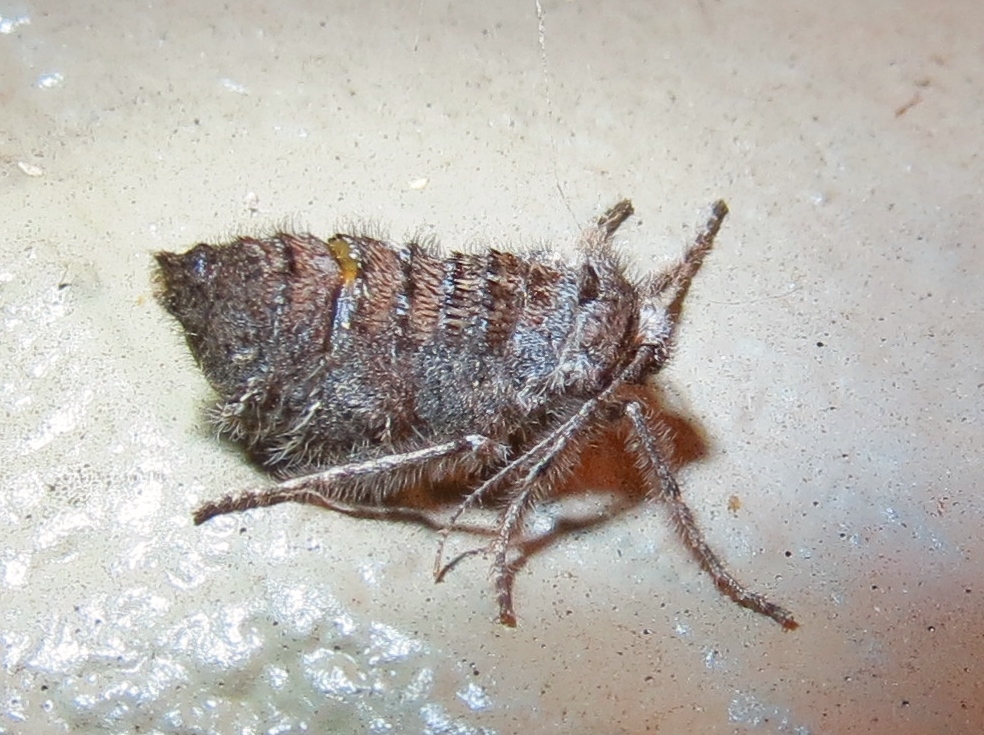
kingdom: Animalia
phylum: Arthropoda
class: Insecta
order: Lepidoptera
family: Geometridae
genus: Paleacrita
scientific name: Paleacrita vernata
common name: Spring cankerworm
